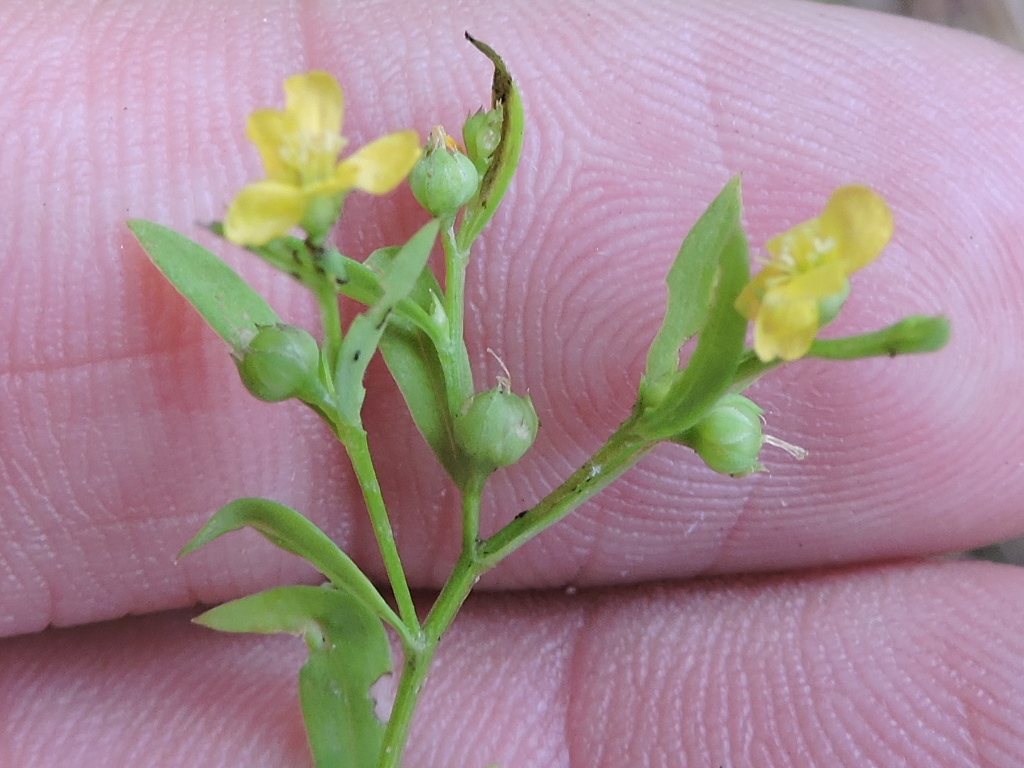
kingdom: Plantae
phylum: Tracheophyta
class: Magnoliopsida
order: Malpighiales
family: Linaceae
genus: Linum
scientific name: Linum virginianum
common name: Slender yellow flax
